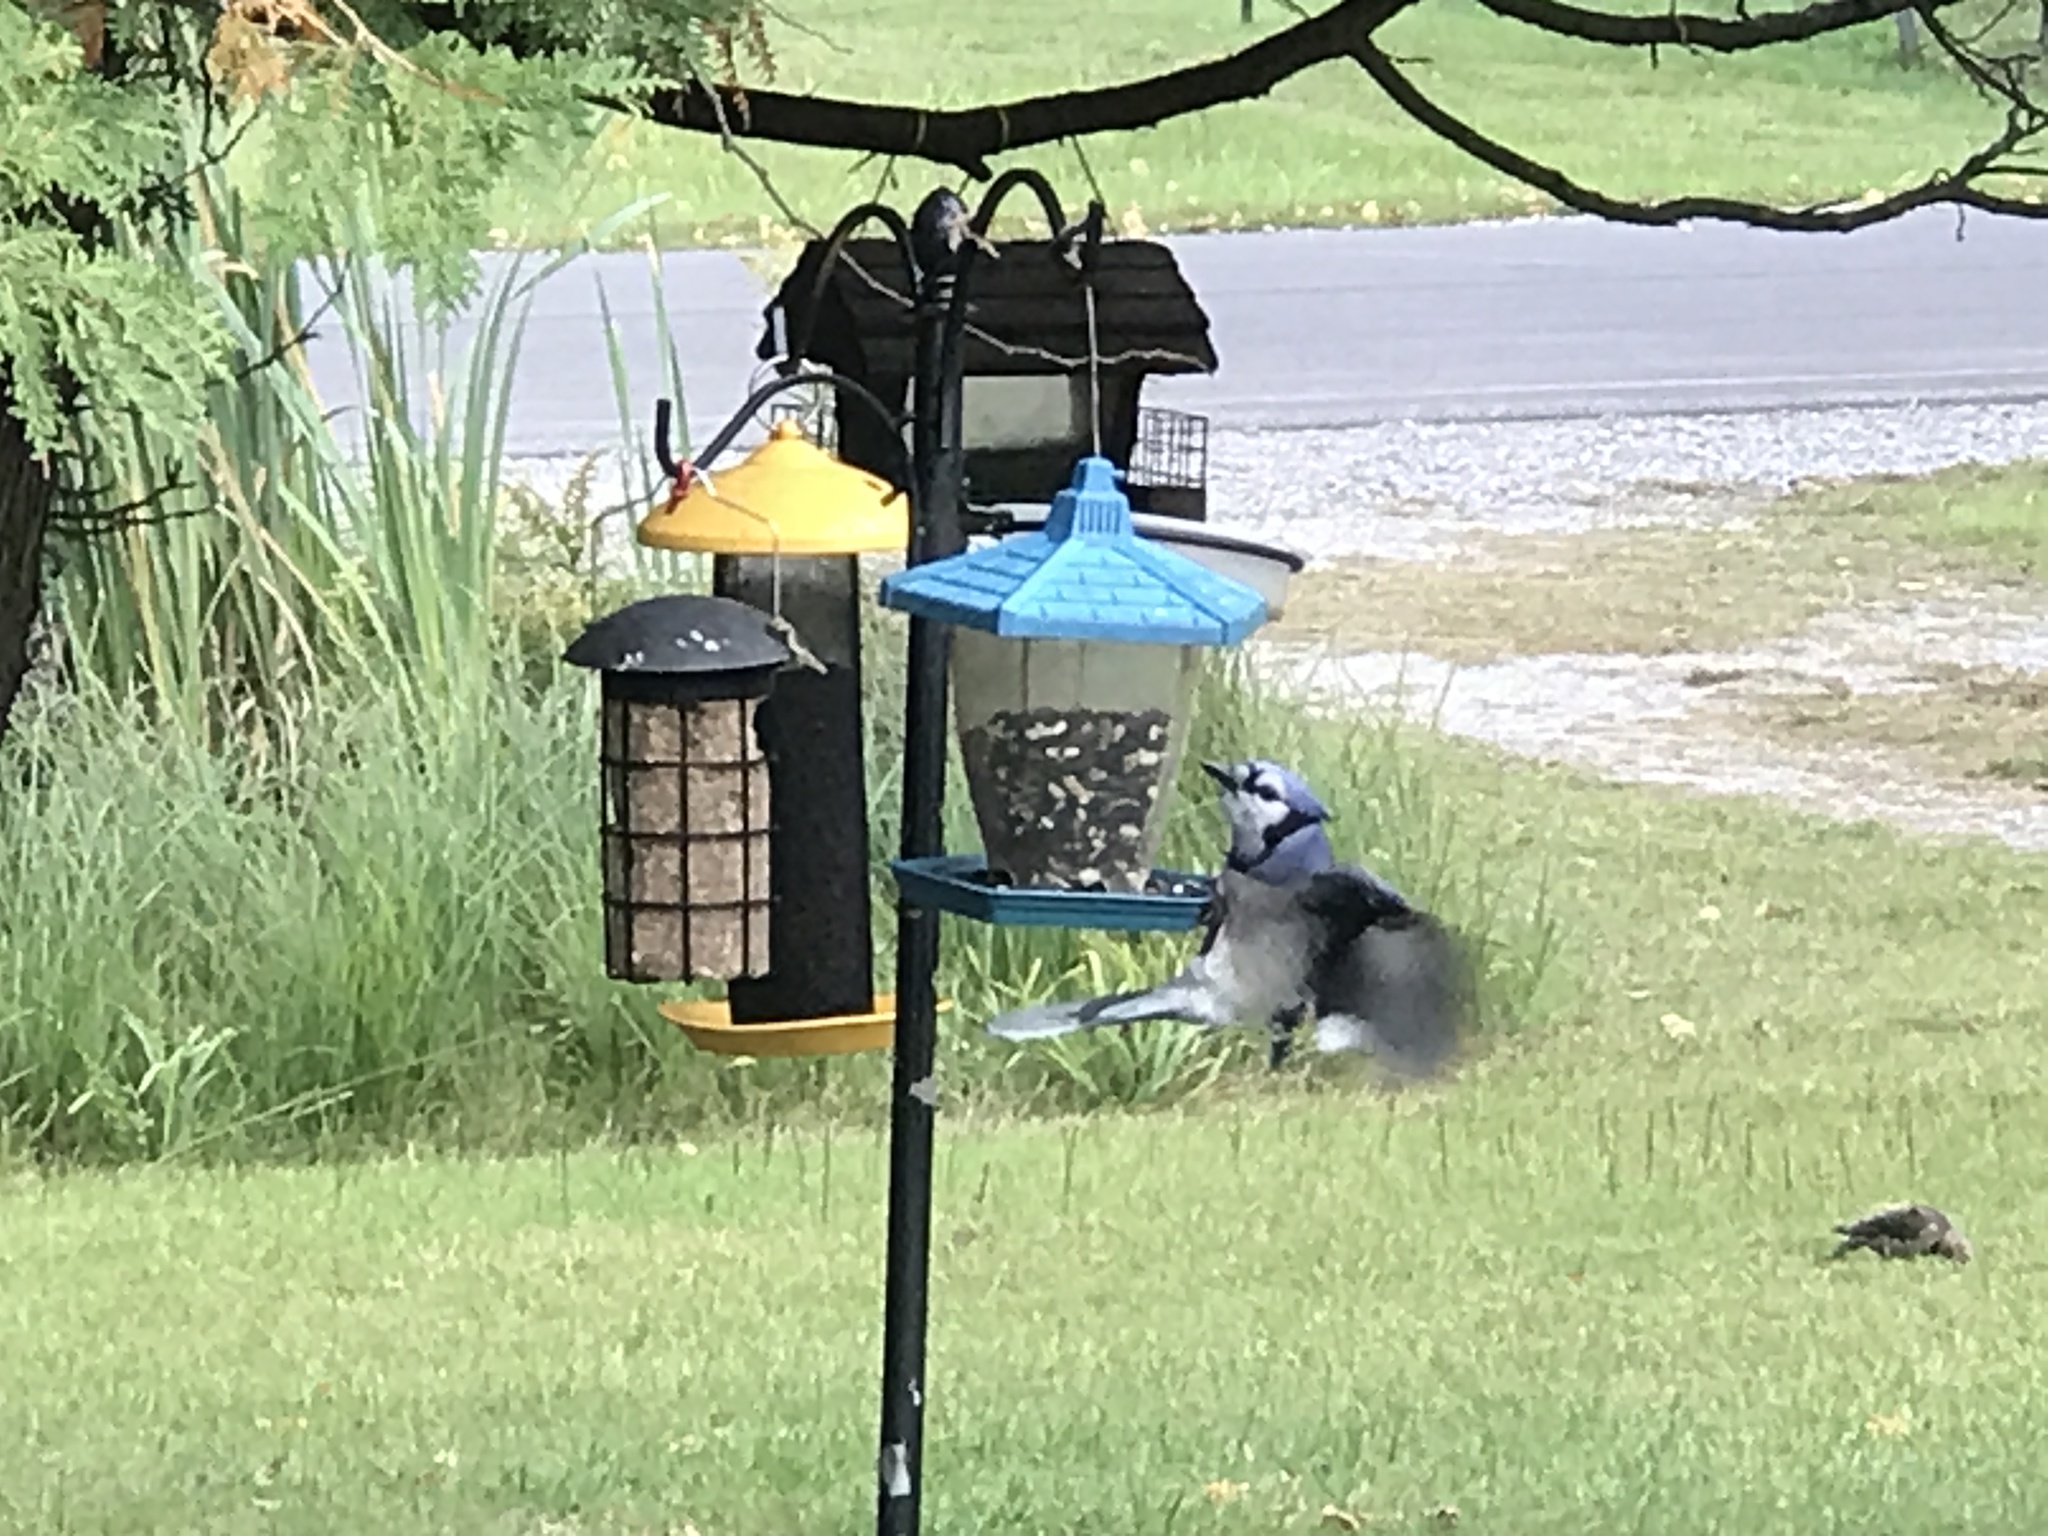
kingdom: Animalia
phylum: Chordata
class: Aves
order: Passeriformes
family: Corvidae
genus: Cyanocitta
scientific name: Cyanocitta cristata
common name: Blue jay
